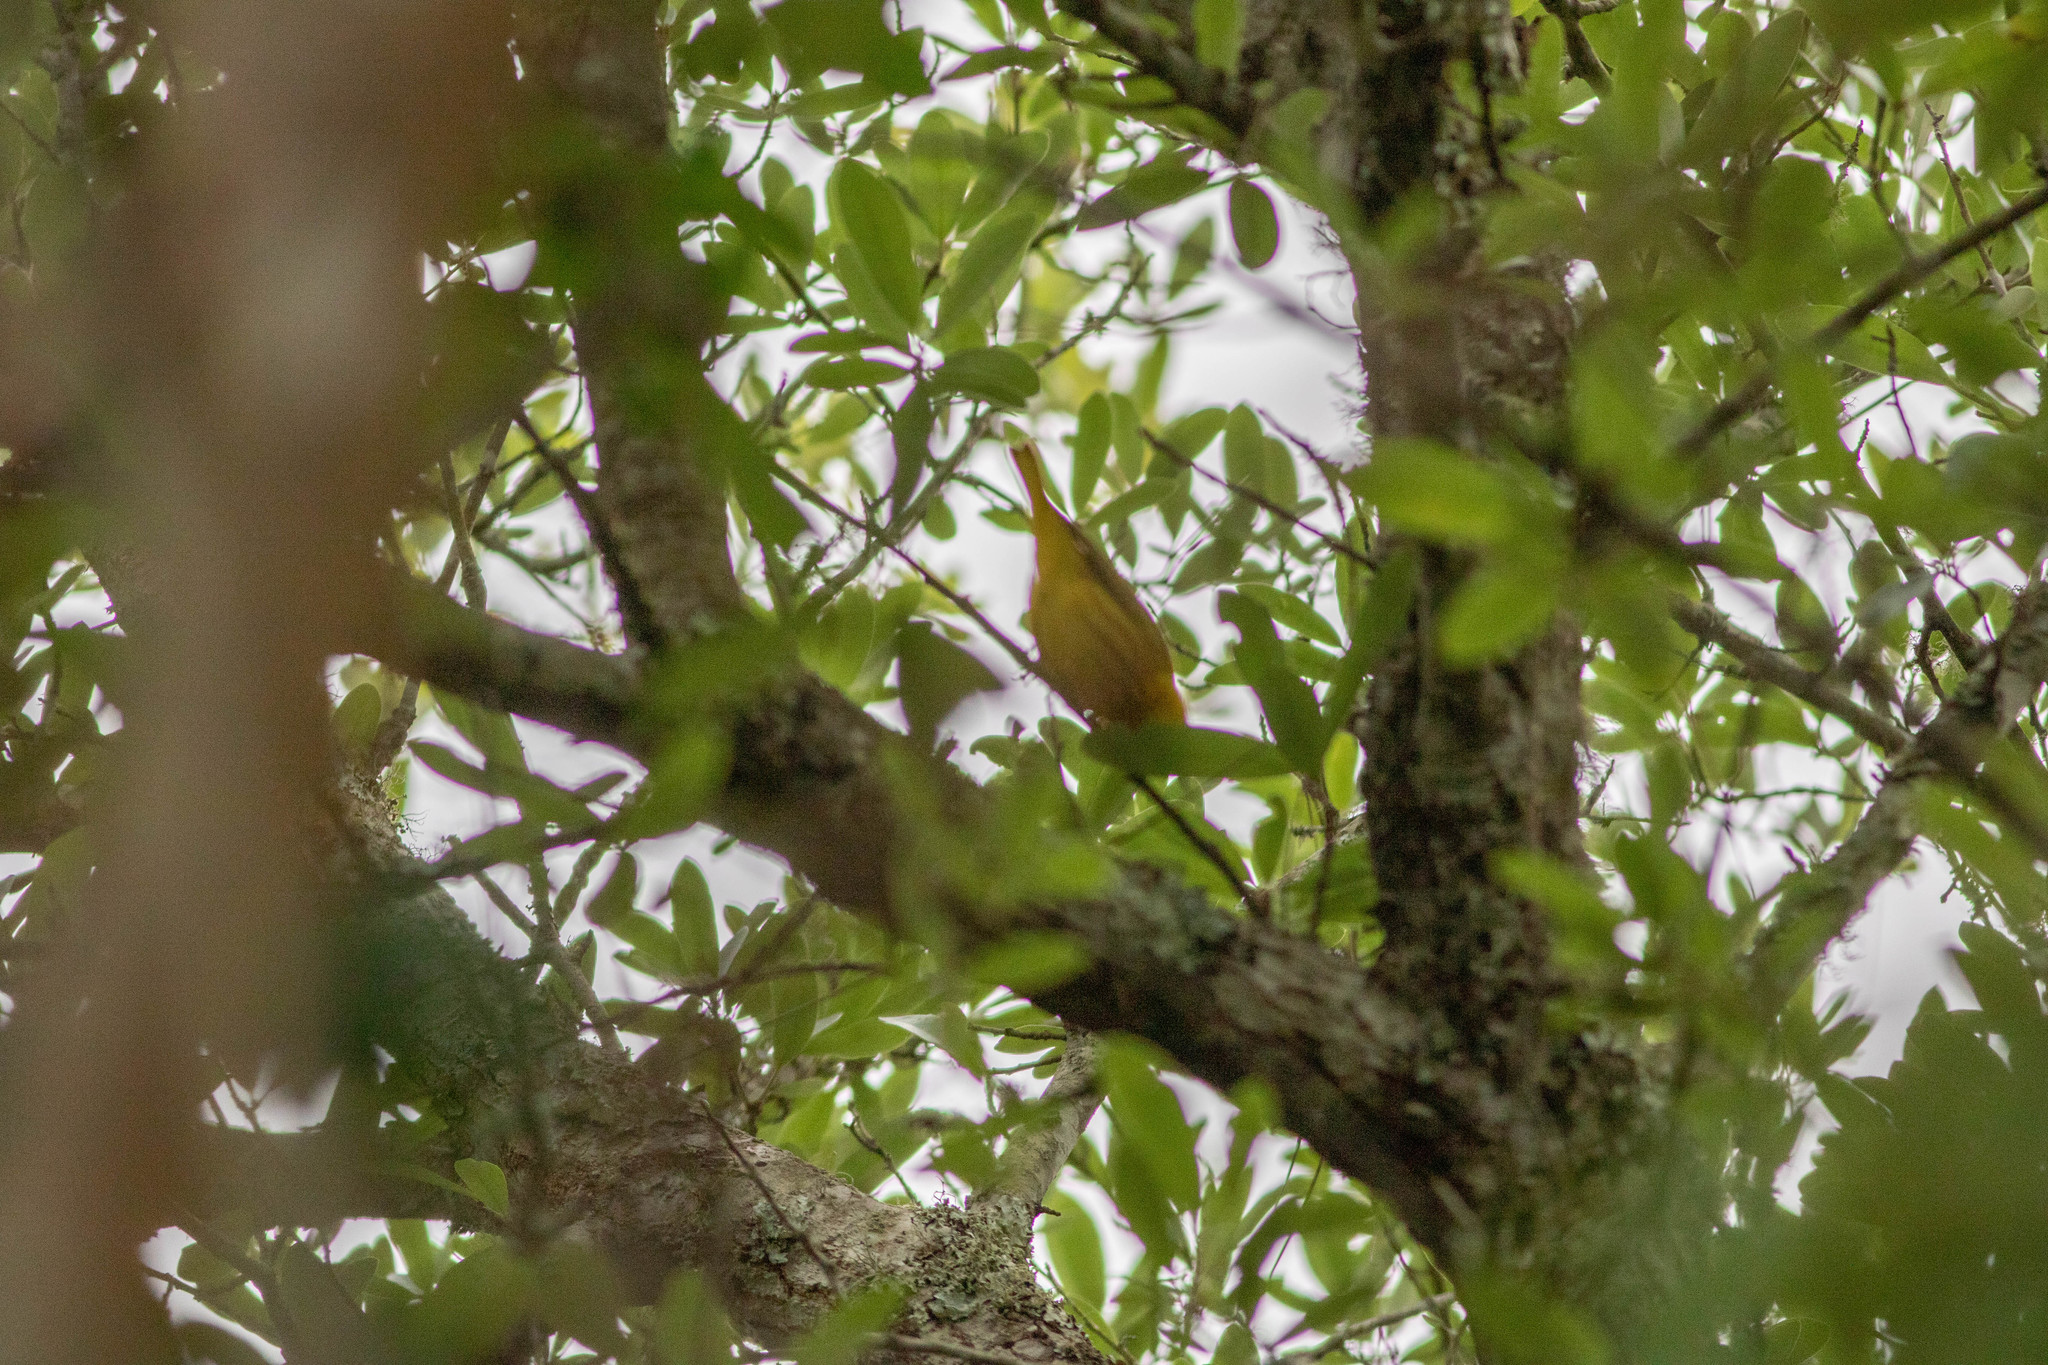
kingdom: Animalia
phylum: Chordata
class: Aves
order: Passeriformes
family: Parulidae
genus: Setophaga
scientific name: Setophaga petechia
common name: Yellow warbler
